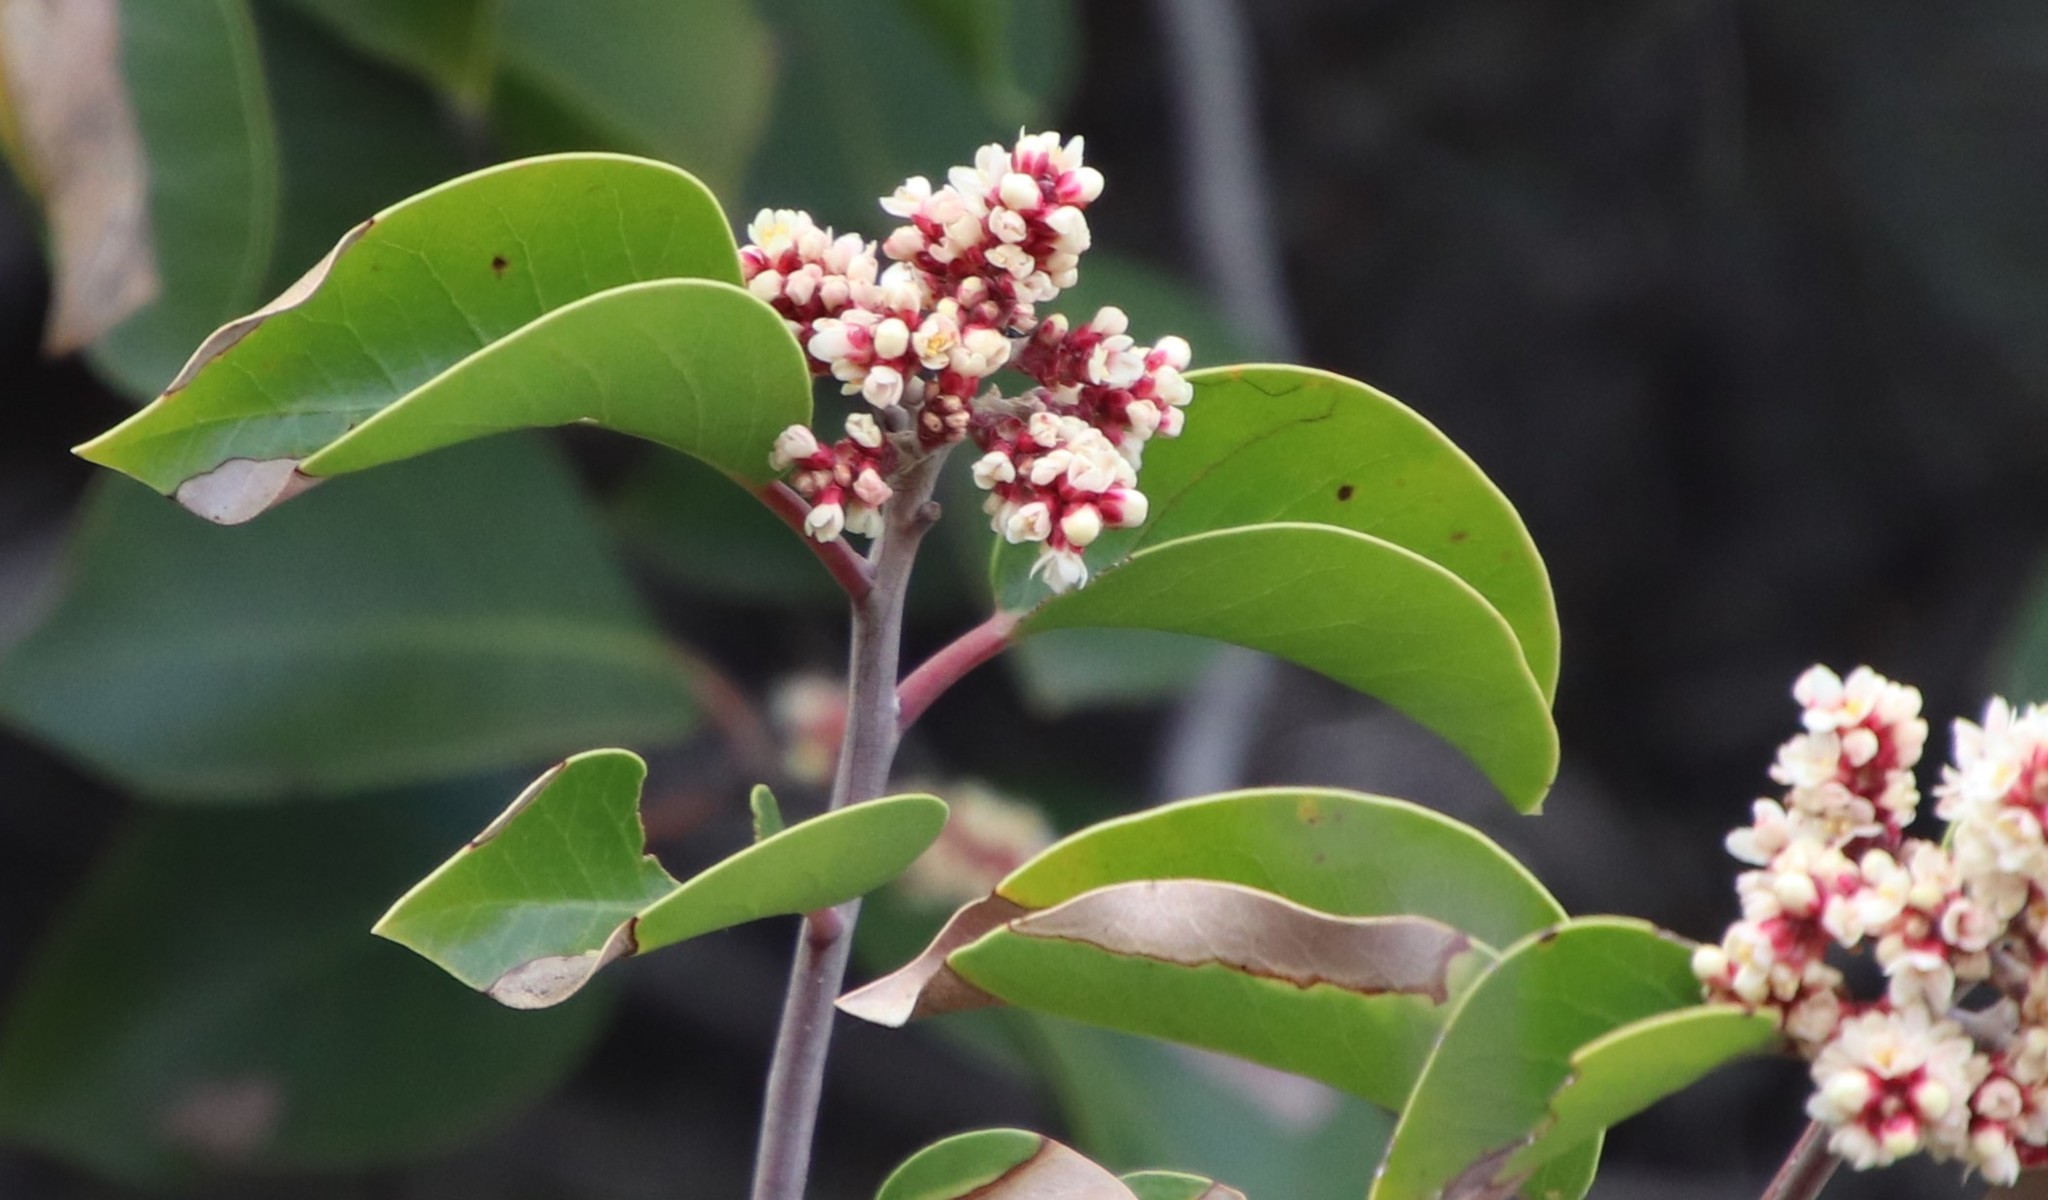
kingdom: Plantae
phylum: Tracheophyta
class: Magnoliopsida
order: Sapindales
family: Anacardiaceae
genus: Rhus
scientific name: Rhus ovata
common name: Sugar sumac
